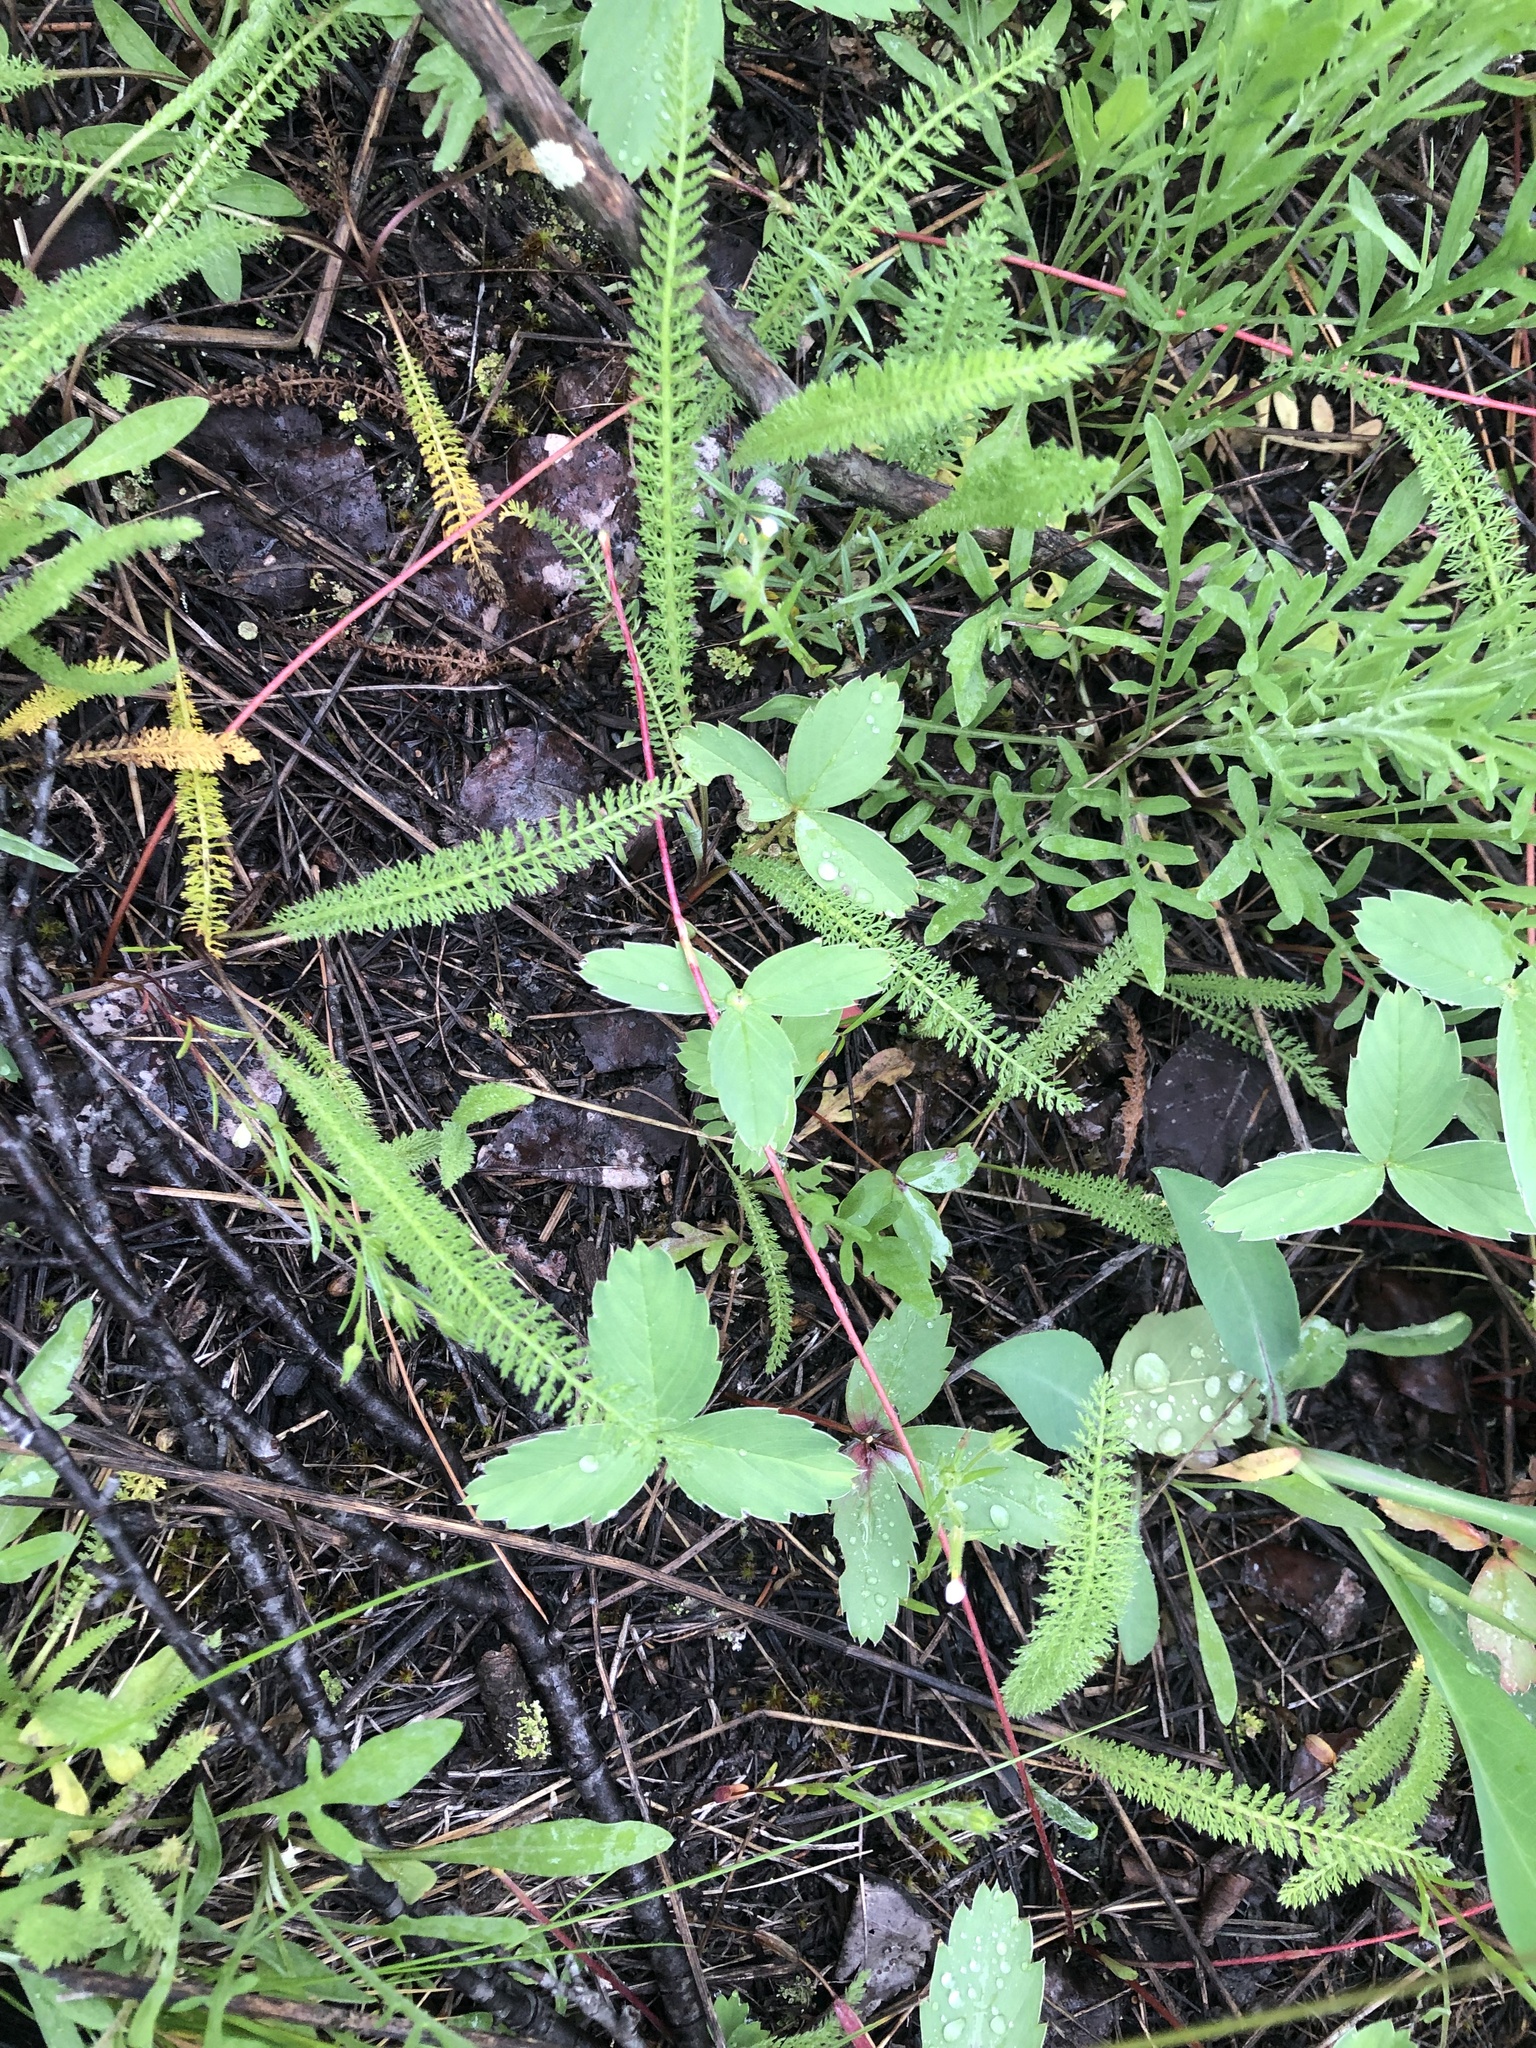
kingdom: Plantae
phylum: Tracheophyta
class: Magnoliopsida
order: Rosales
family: Rosaceae
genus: Fragaria
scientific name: Fragaria virginiana
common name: Thickleaved wild strawberry
